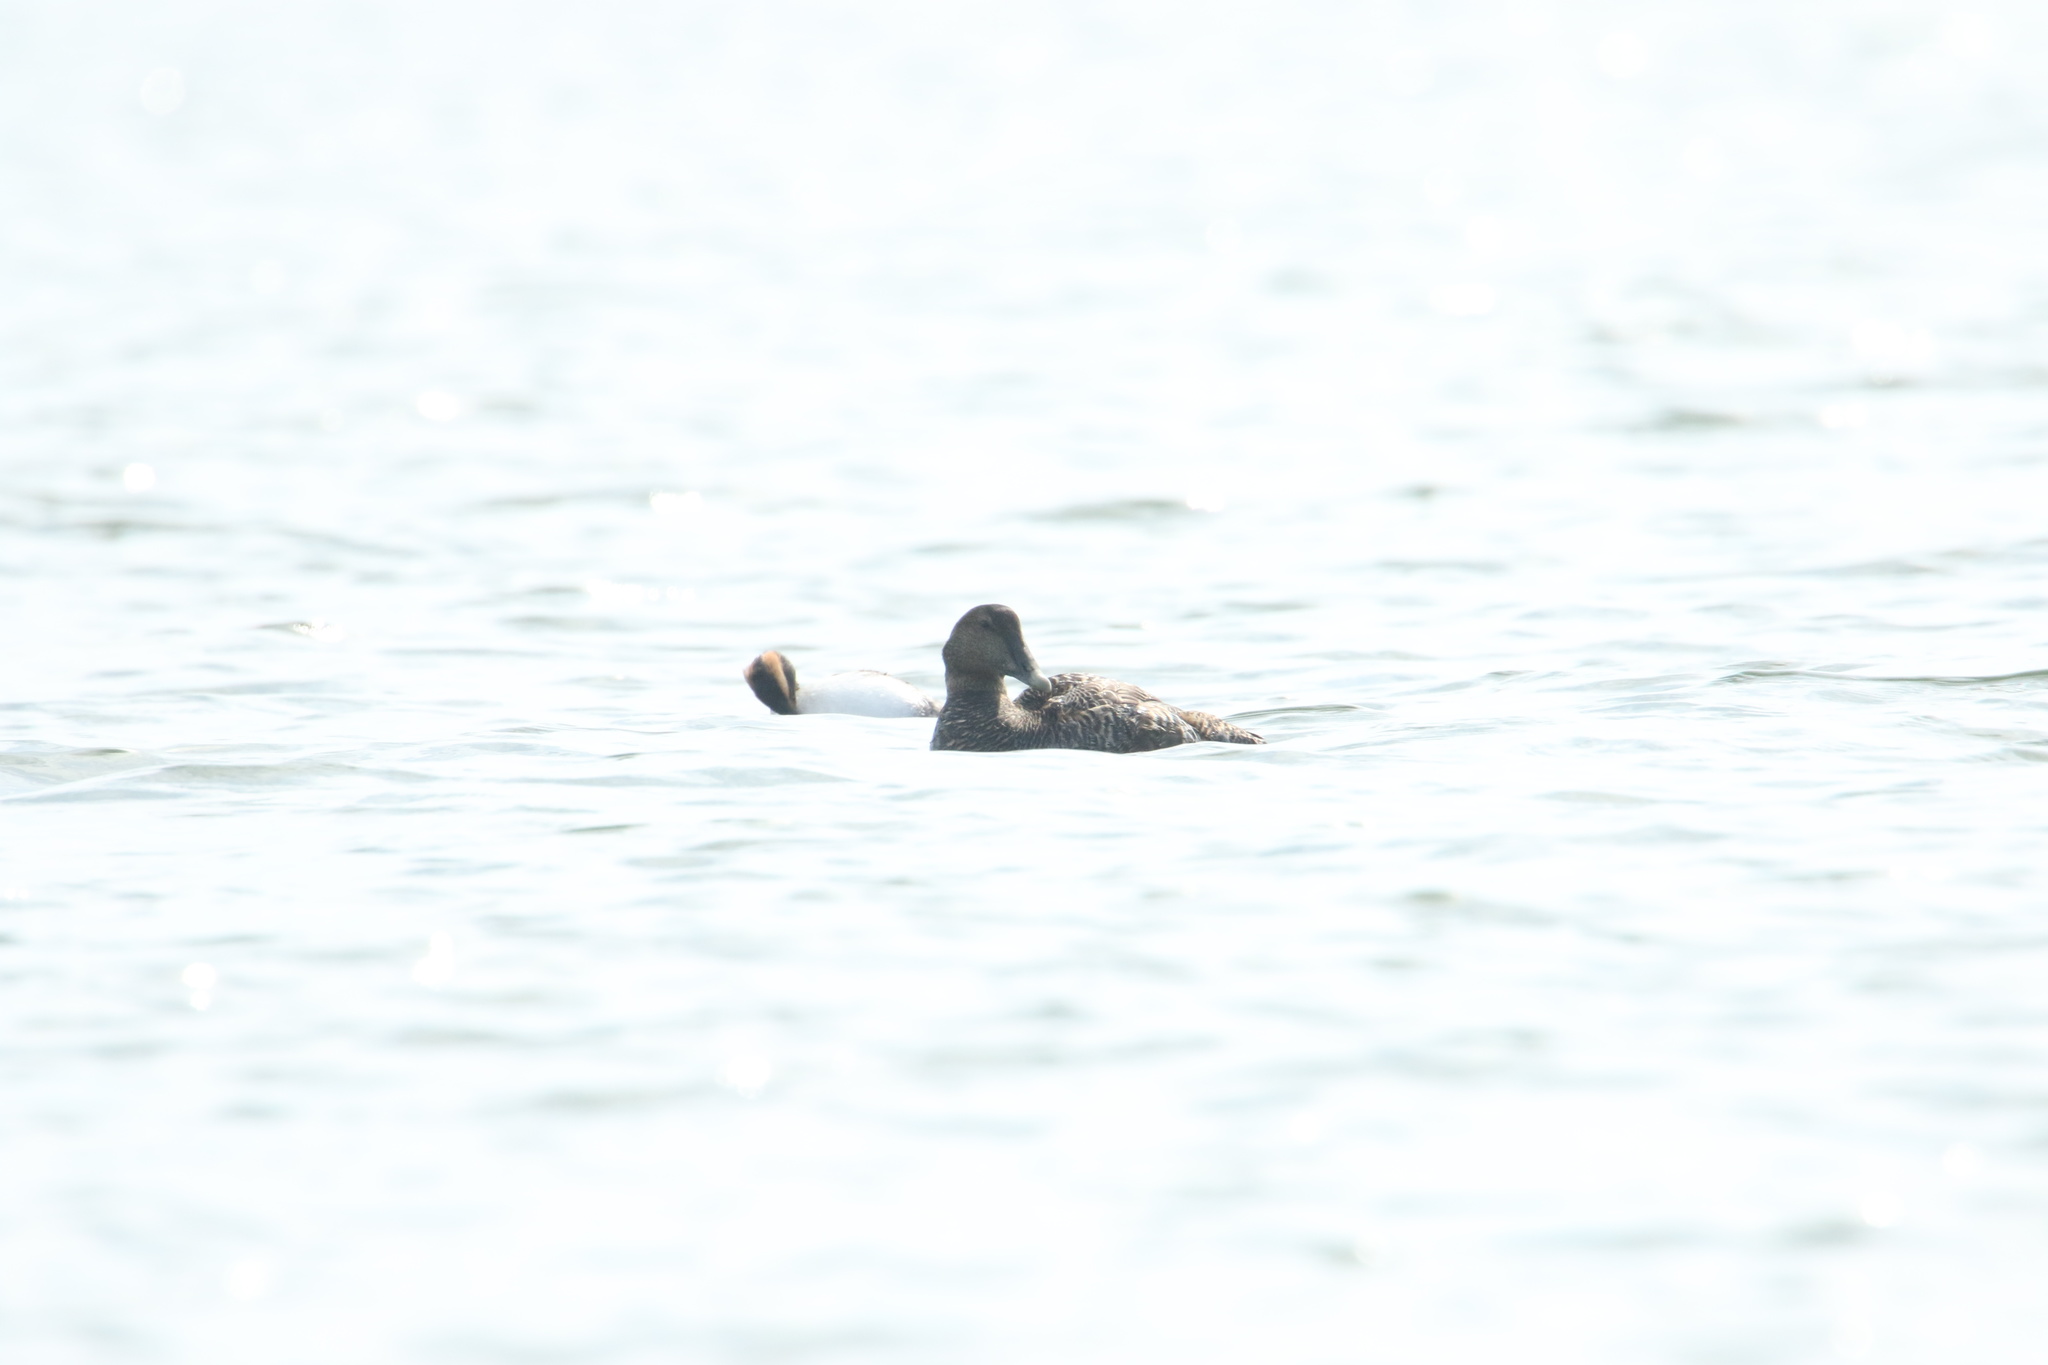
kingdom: Animalia
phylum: Chordata
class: Aves
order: Anseriformes
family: Anatidae
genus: Somateria
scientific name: Somateria mollissima
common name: Common eider
